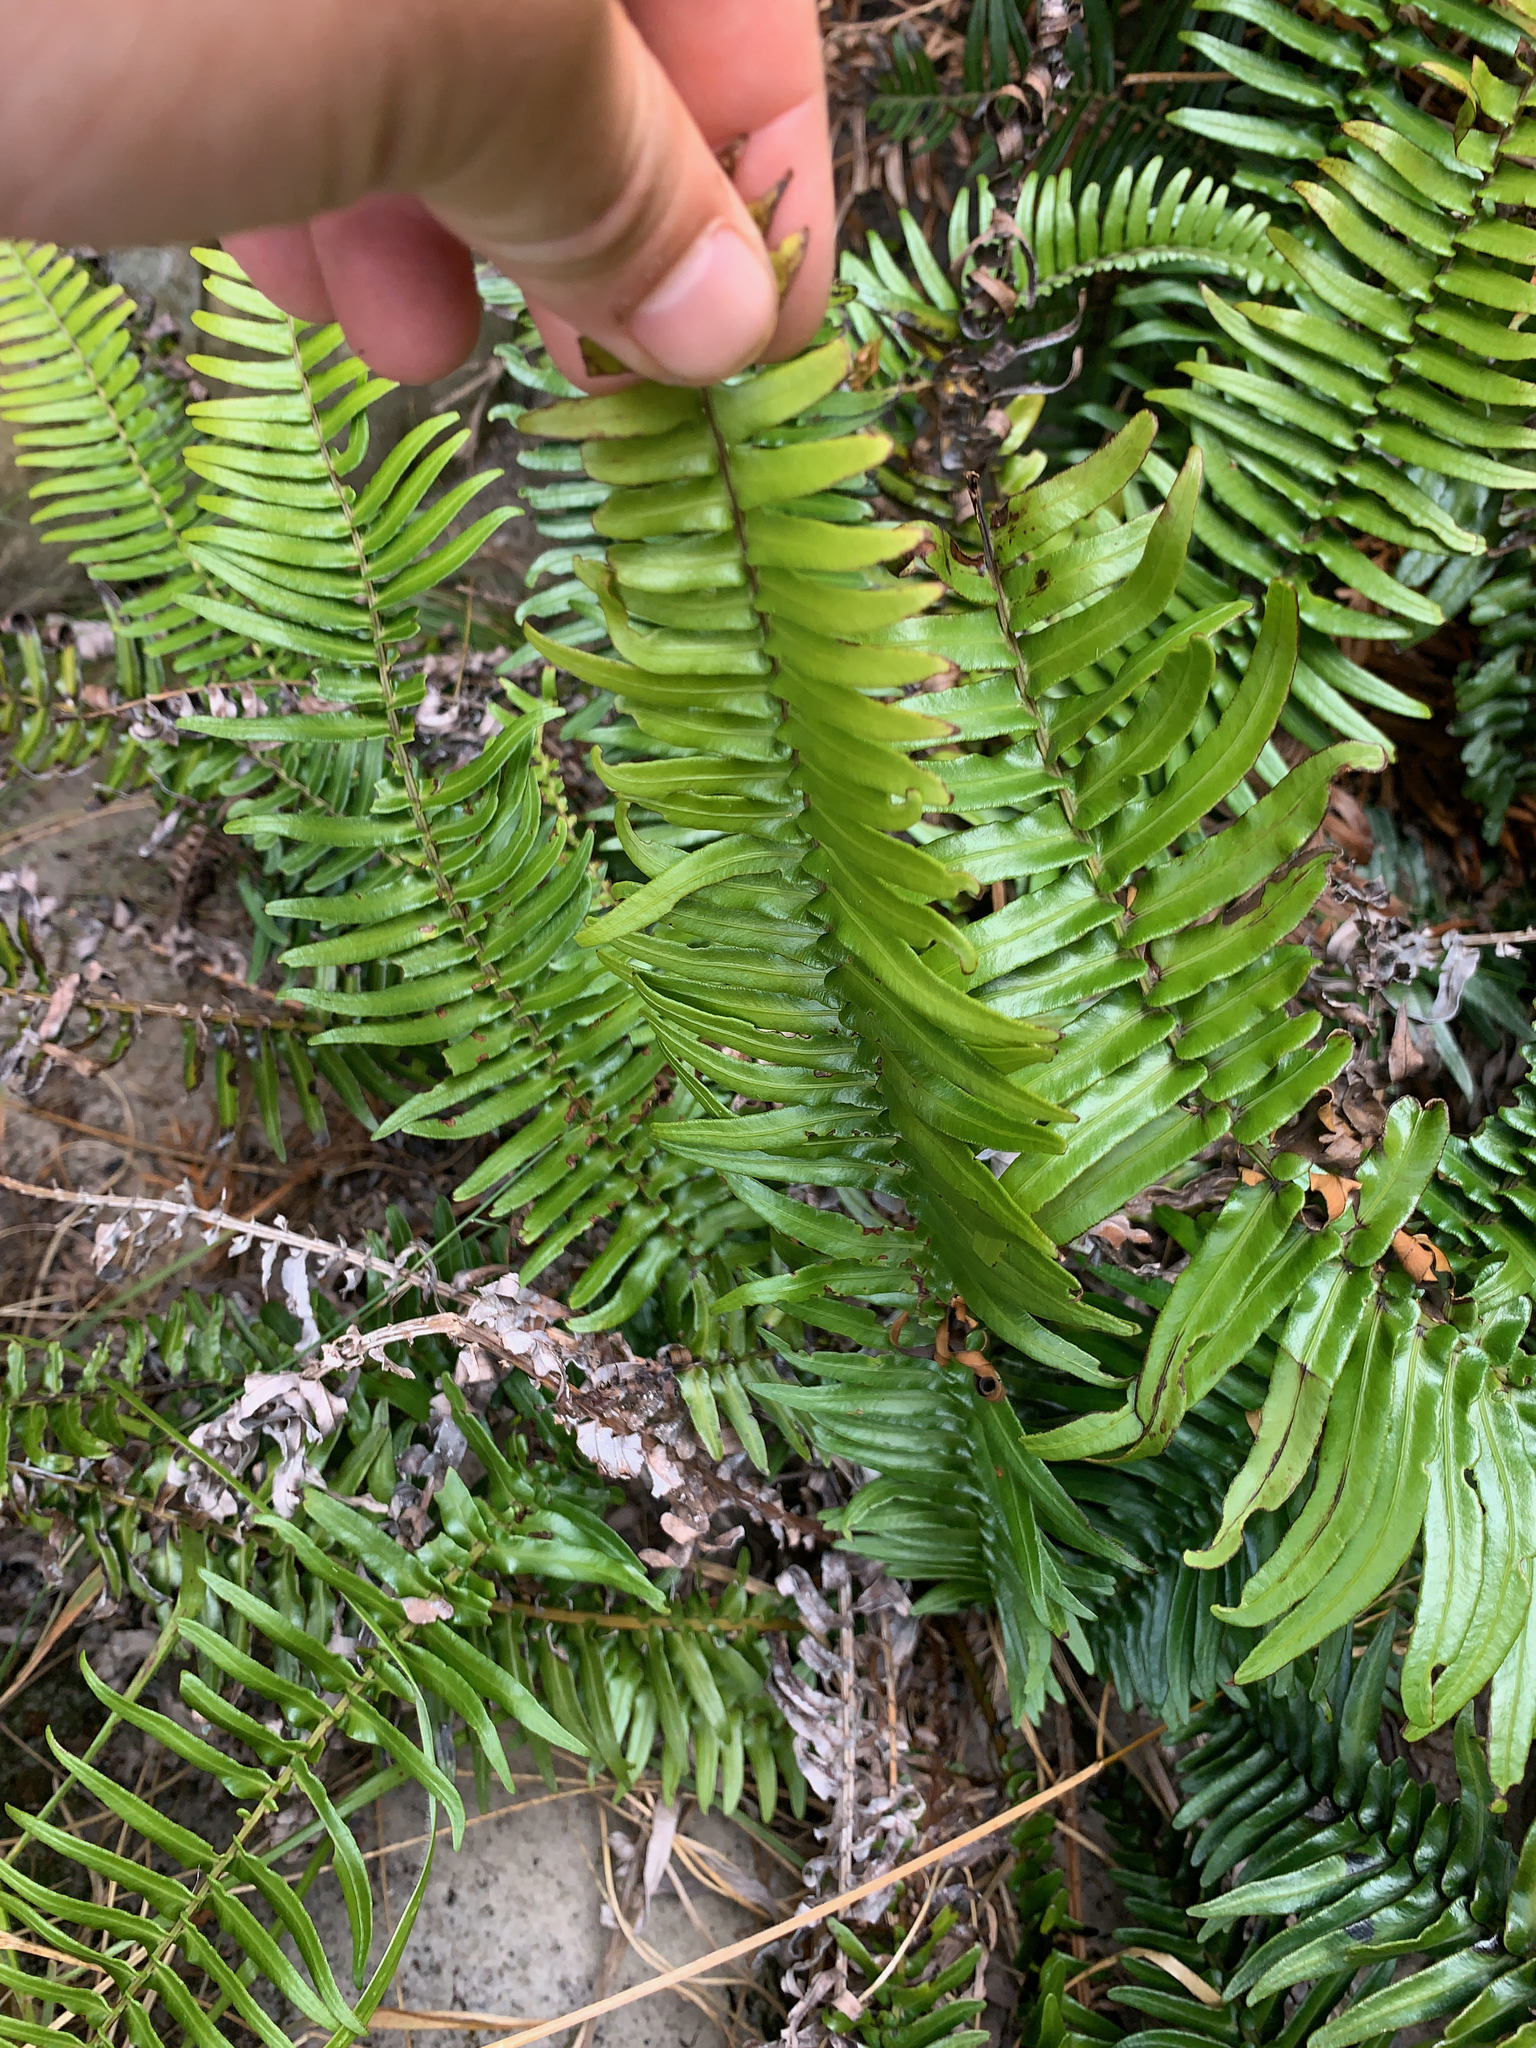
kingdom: Plantae
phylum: Tracheophyta
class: Polypodiopsida
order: Polypodiales
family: Blechnaceae
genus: Blechnum
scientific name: Blechnum punctulatum
